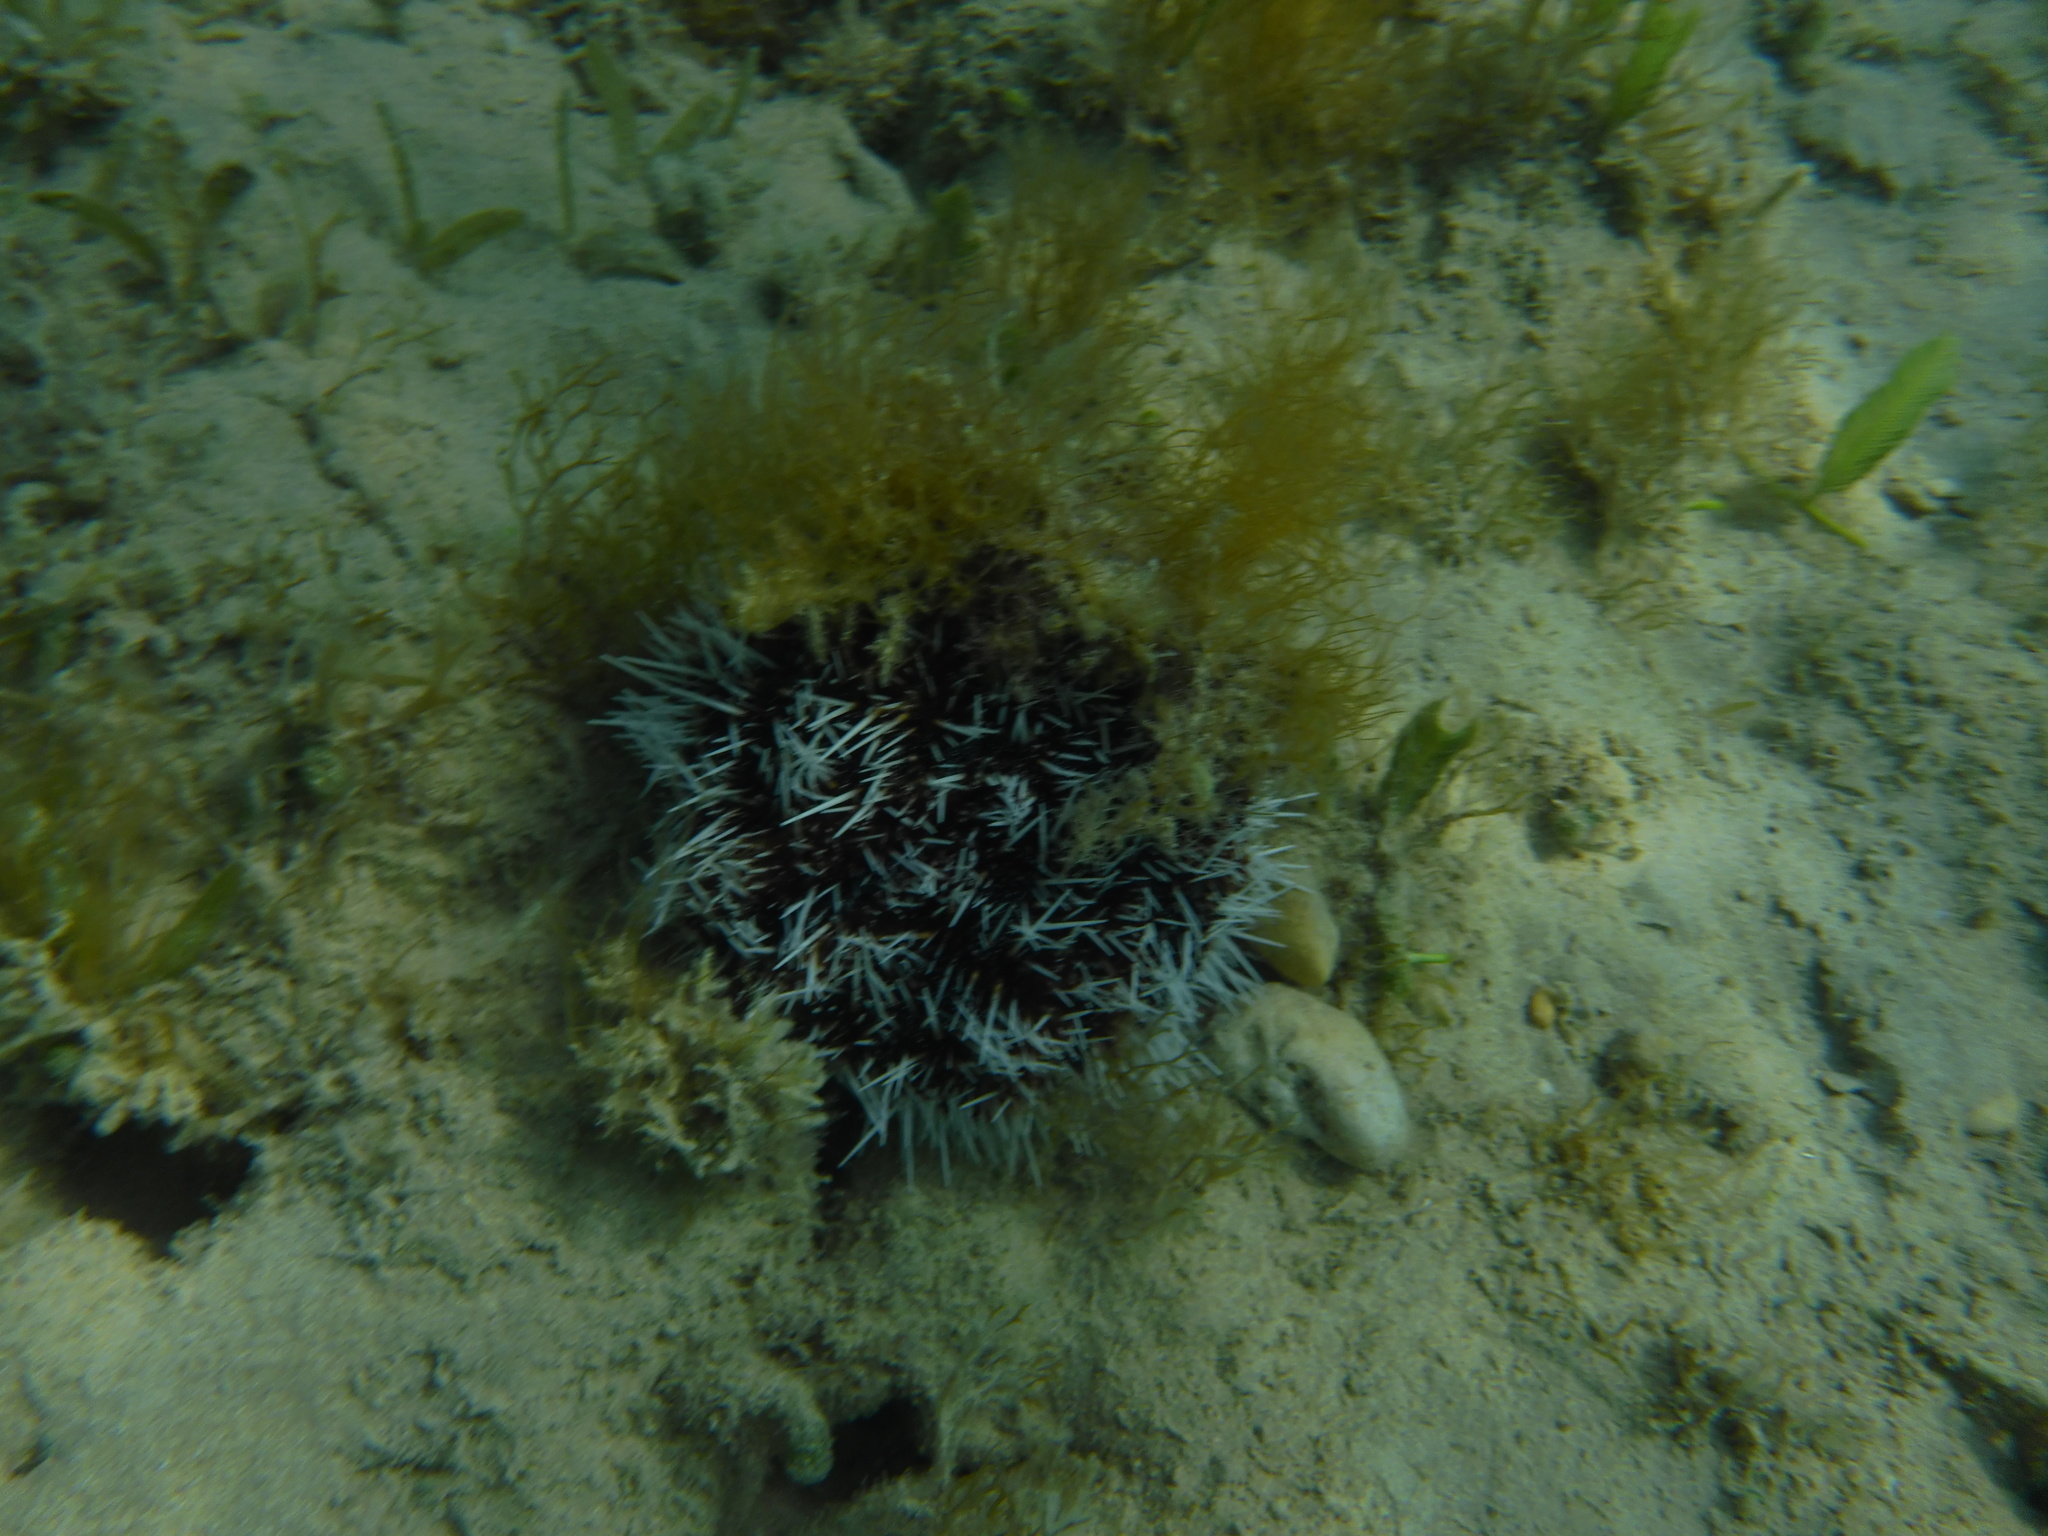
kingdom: Animalia
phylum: Echinodermata
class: Echinoidea
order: Camarodonta
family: Toxopneustidae
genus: Tripneustes
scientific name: Tripneustes ventricosus
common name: West indian sea egg
